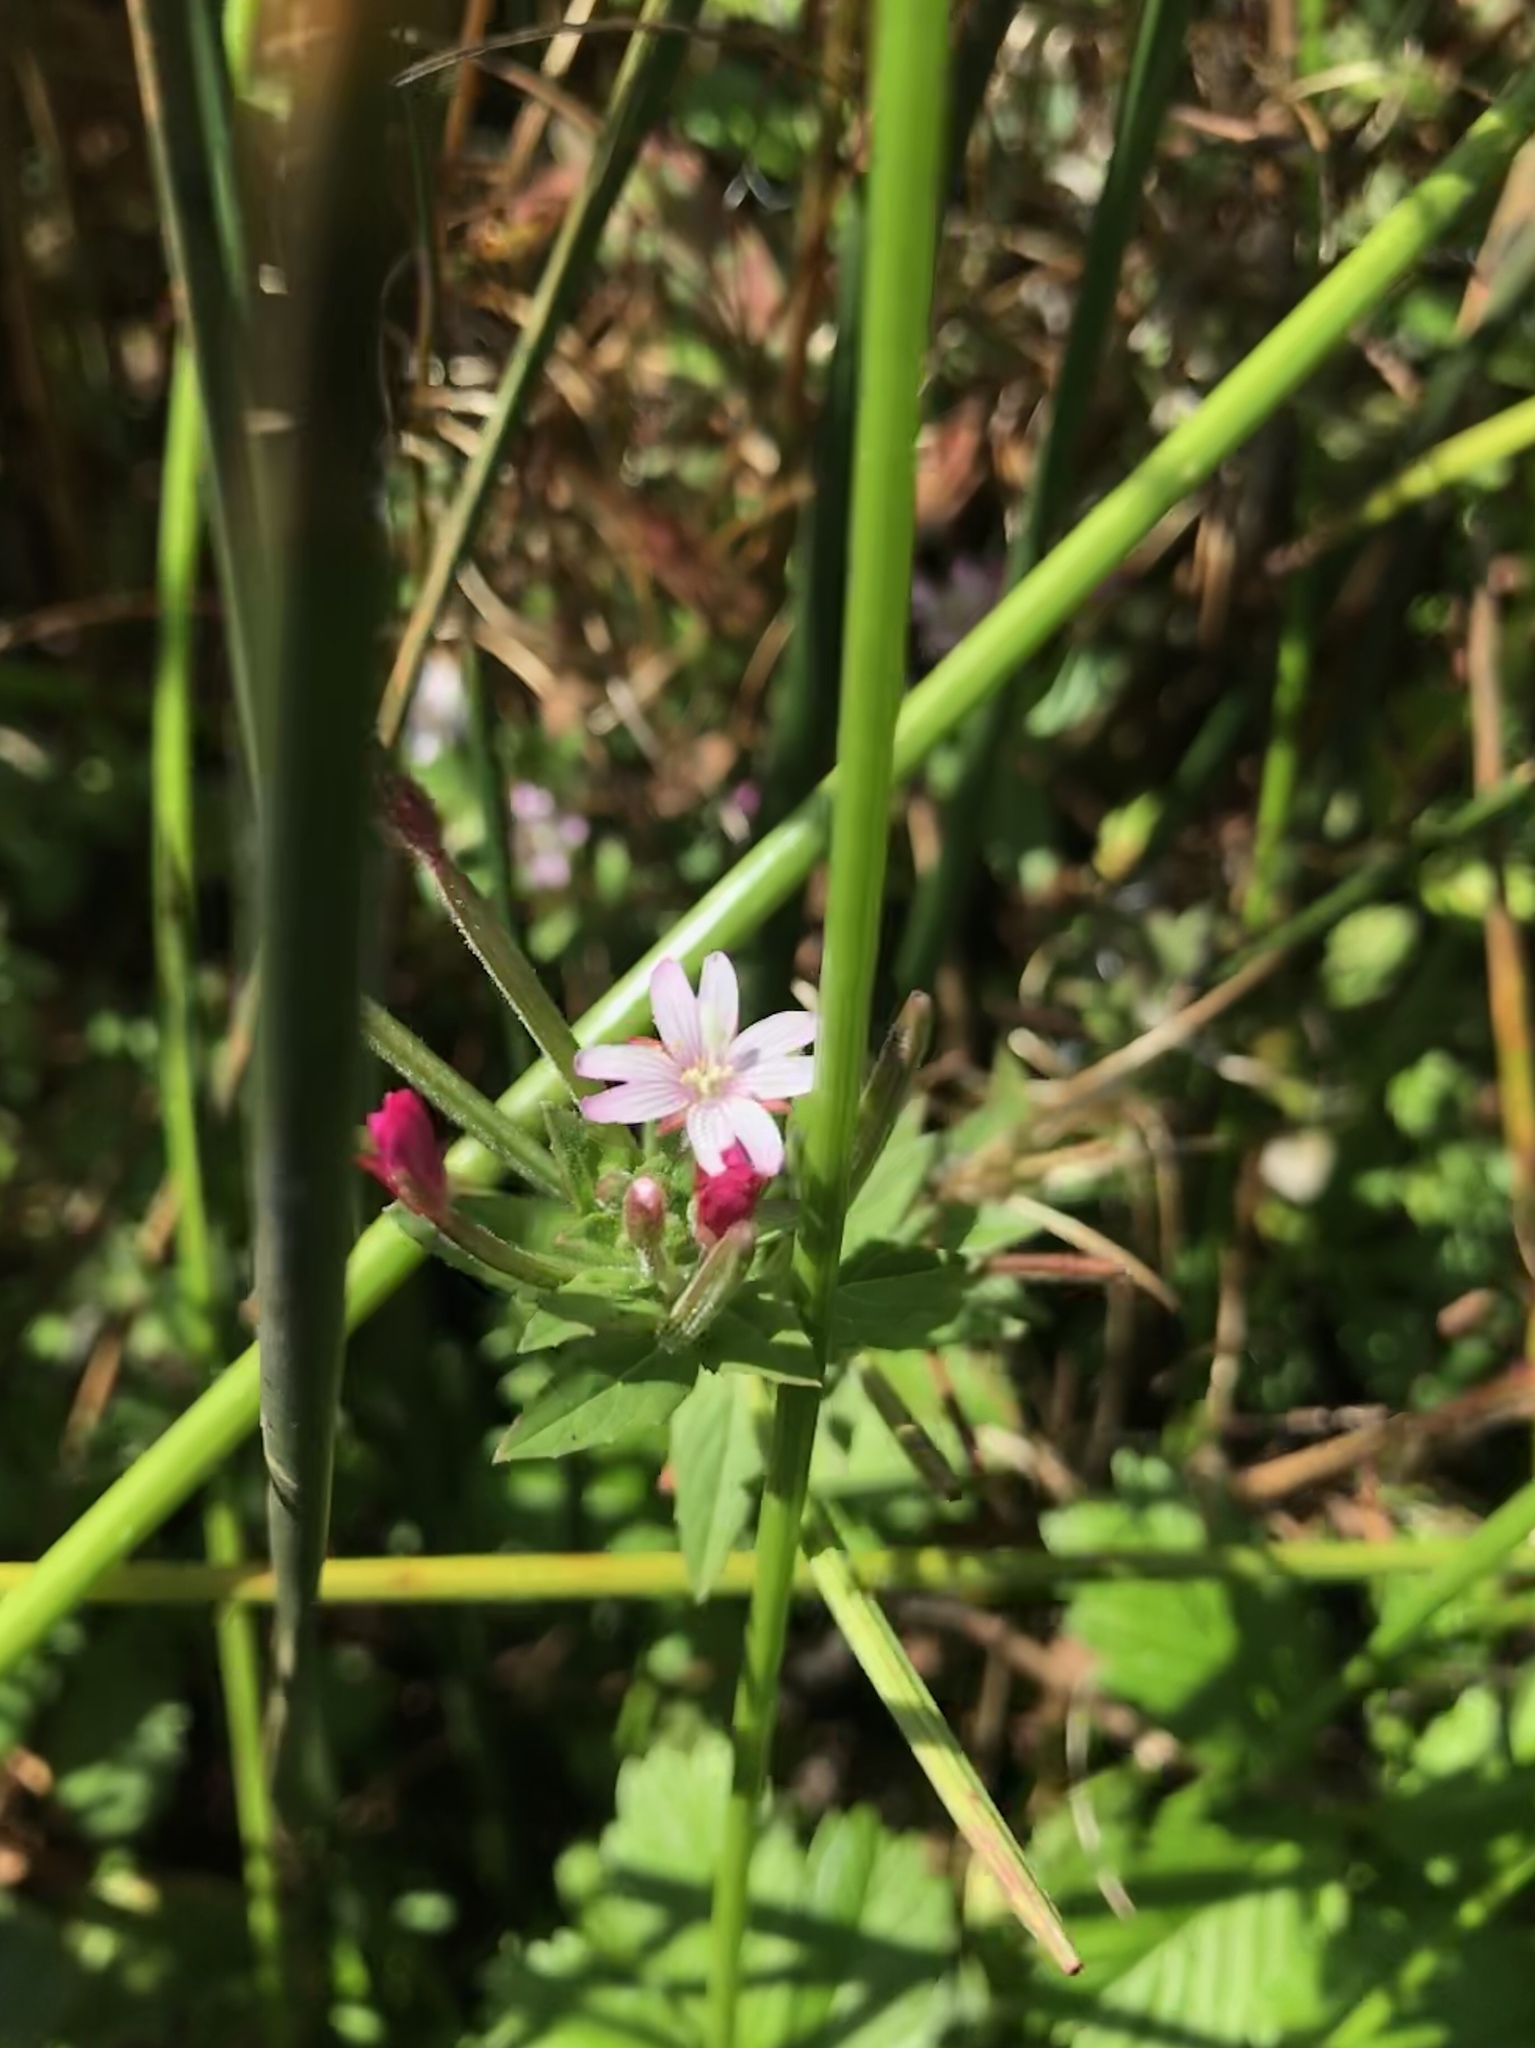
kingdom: Plantae
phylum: Tracheophyta
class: Magnoliopsida
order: Myrtales
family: Onagraceae
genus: Epilobium
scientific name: Epilobium ciliatum
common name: American willowherb
